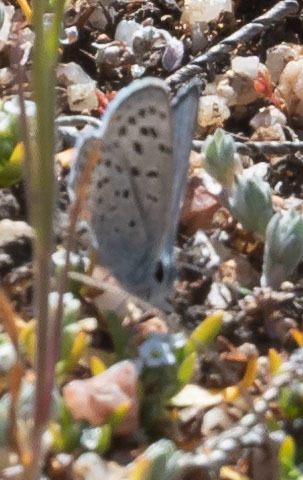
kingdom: Animalia
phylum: Arthropoda
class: Insecta
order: Lepidoptera
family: Lycaenidae
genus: Icaricia
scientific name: Icaricia acmon
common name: Acmon blue
